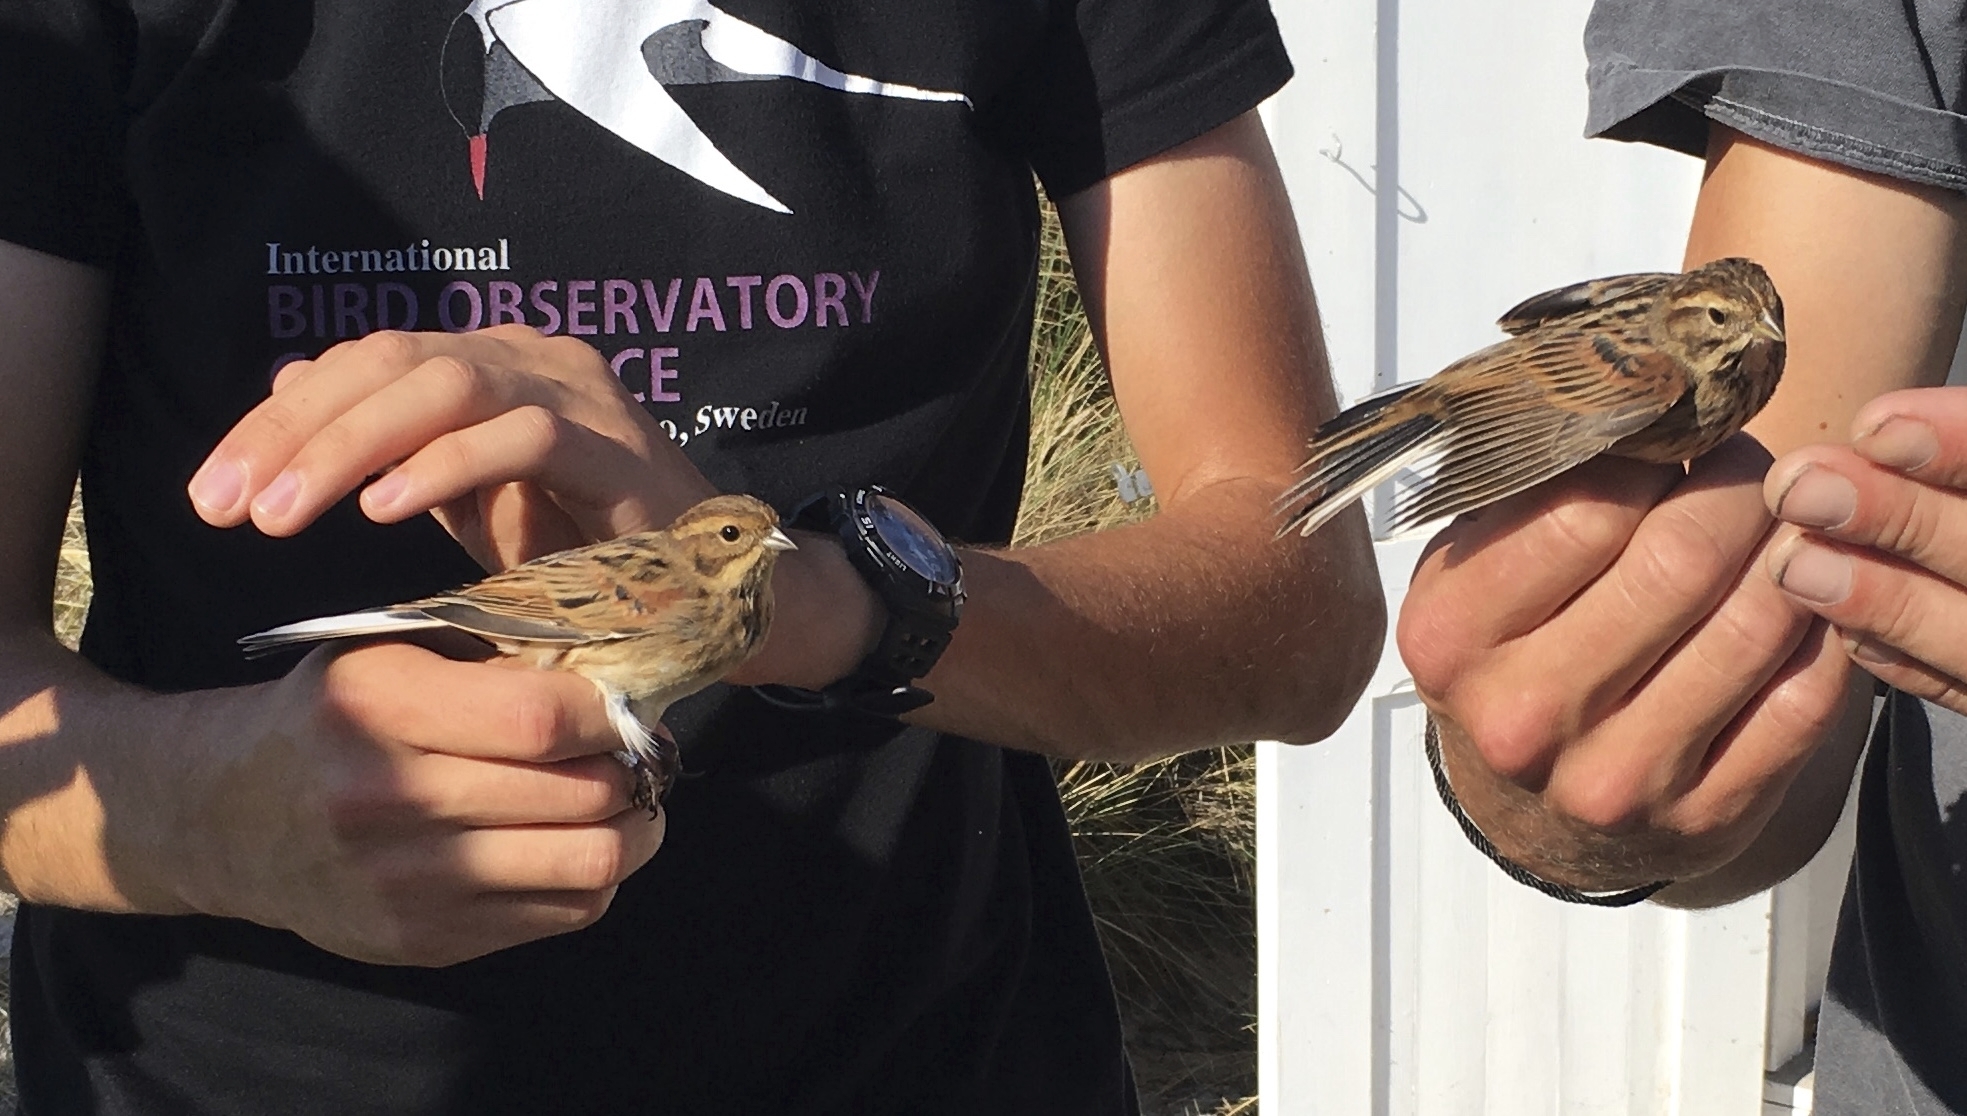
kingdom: Animalia
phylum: Chordata
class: Aves
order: Passeriformes
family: Emberizidae
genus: Emberiza
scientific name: Emberiza schoeniclus
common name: Reed bunting
